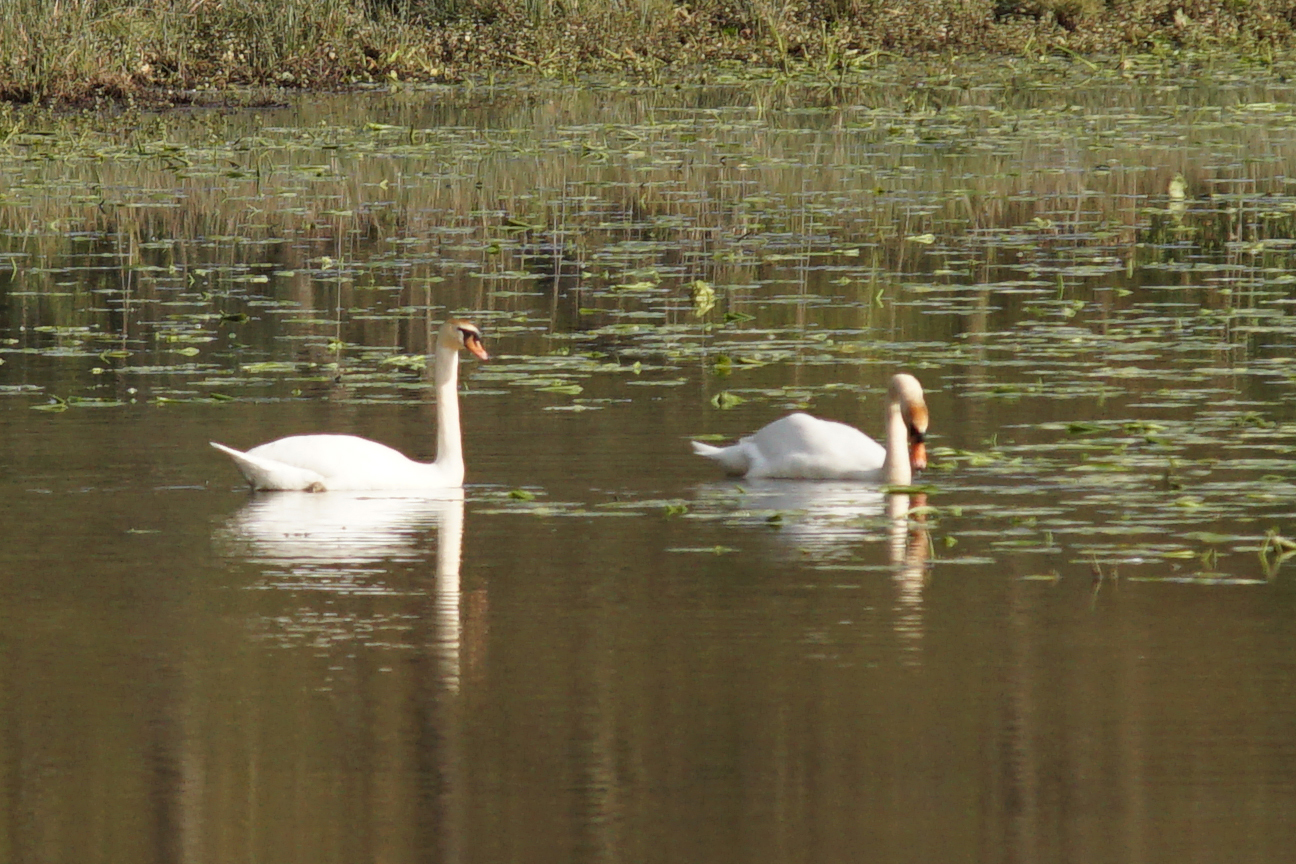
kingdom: Animalia
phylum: Chordata
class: Aves
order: Anseriformes
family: Anatidae
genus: Cygnus
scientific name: Cygnus olor
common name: Mute swan
